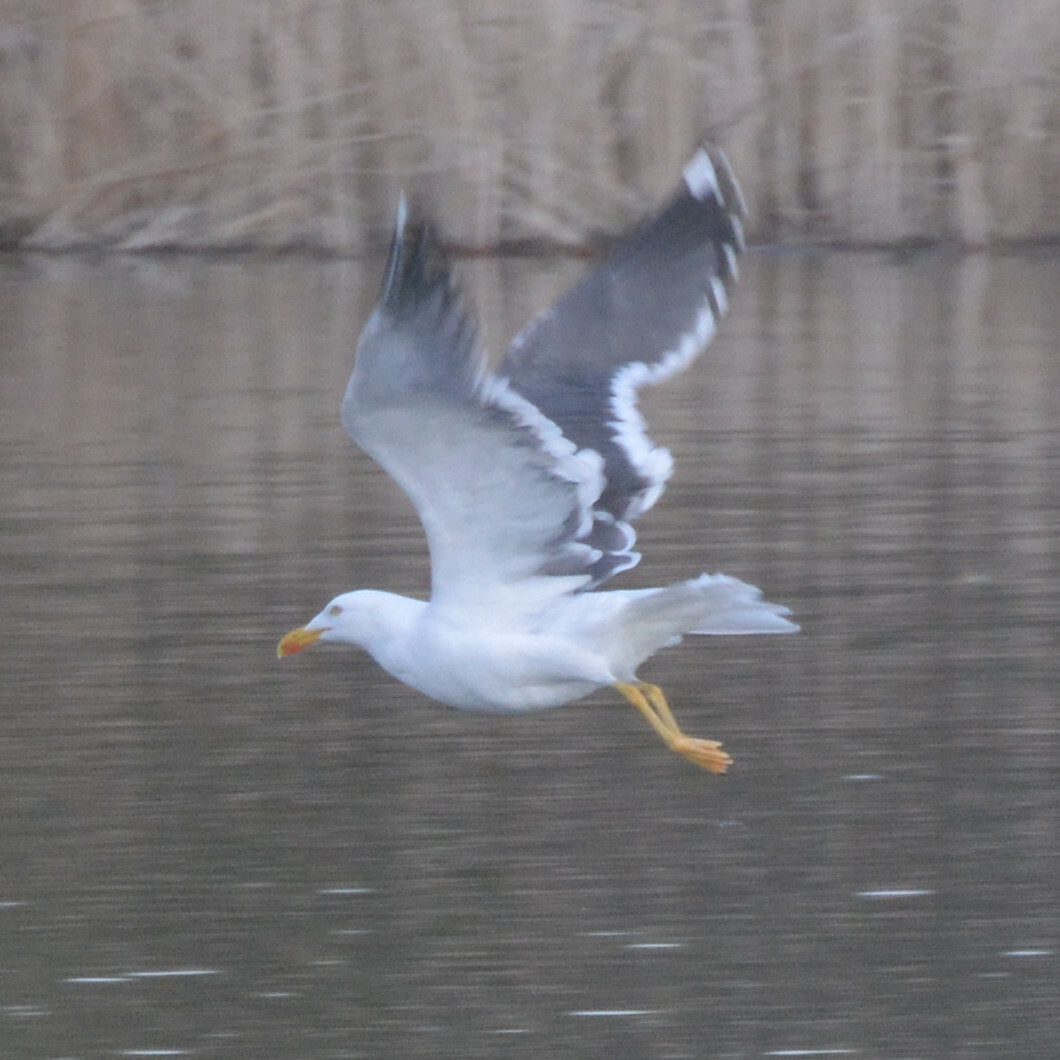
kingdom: Animalia
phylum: Chordata
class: Aves
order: Charadriiformes
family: Laridae
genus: Larus
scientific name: Larus fuscus
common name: Lesser black-backed gull
